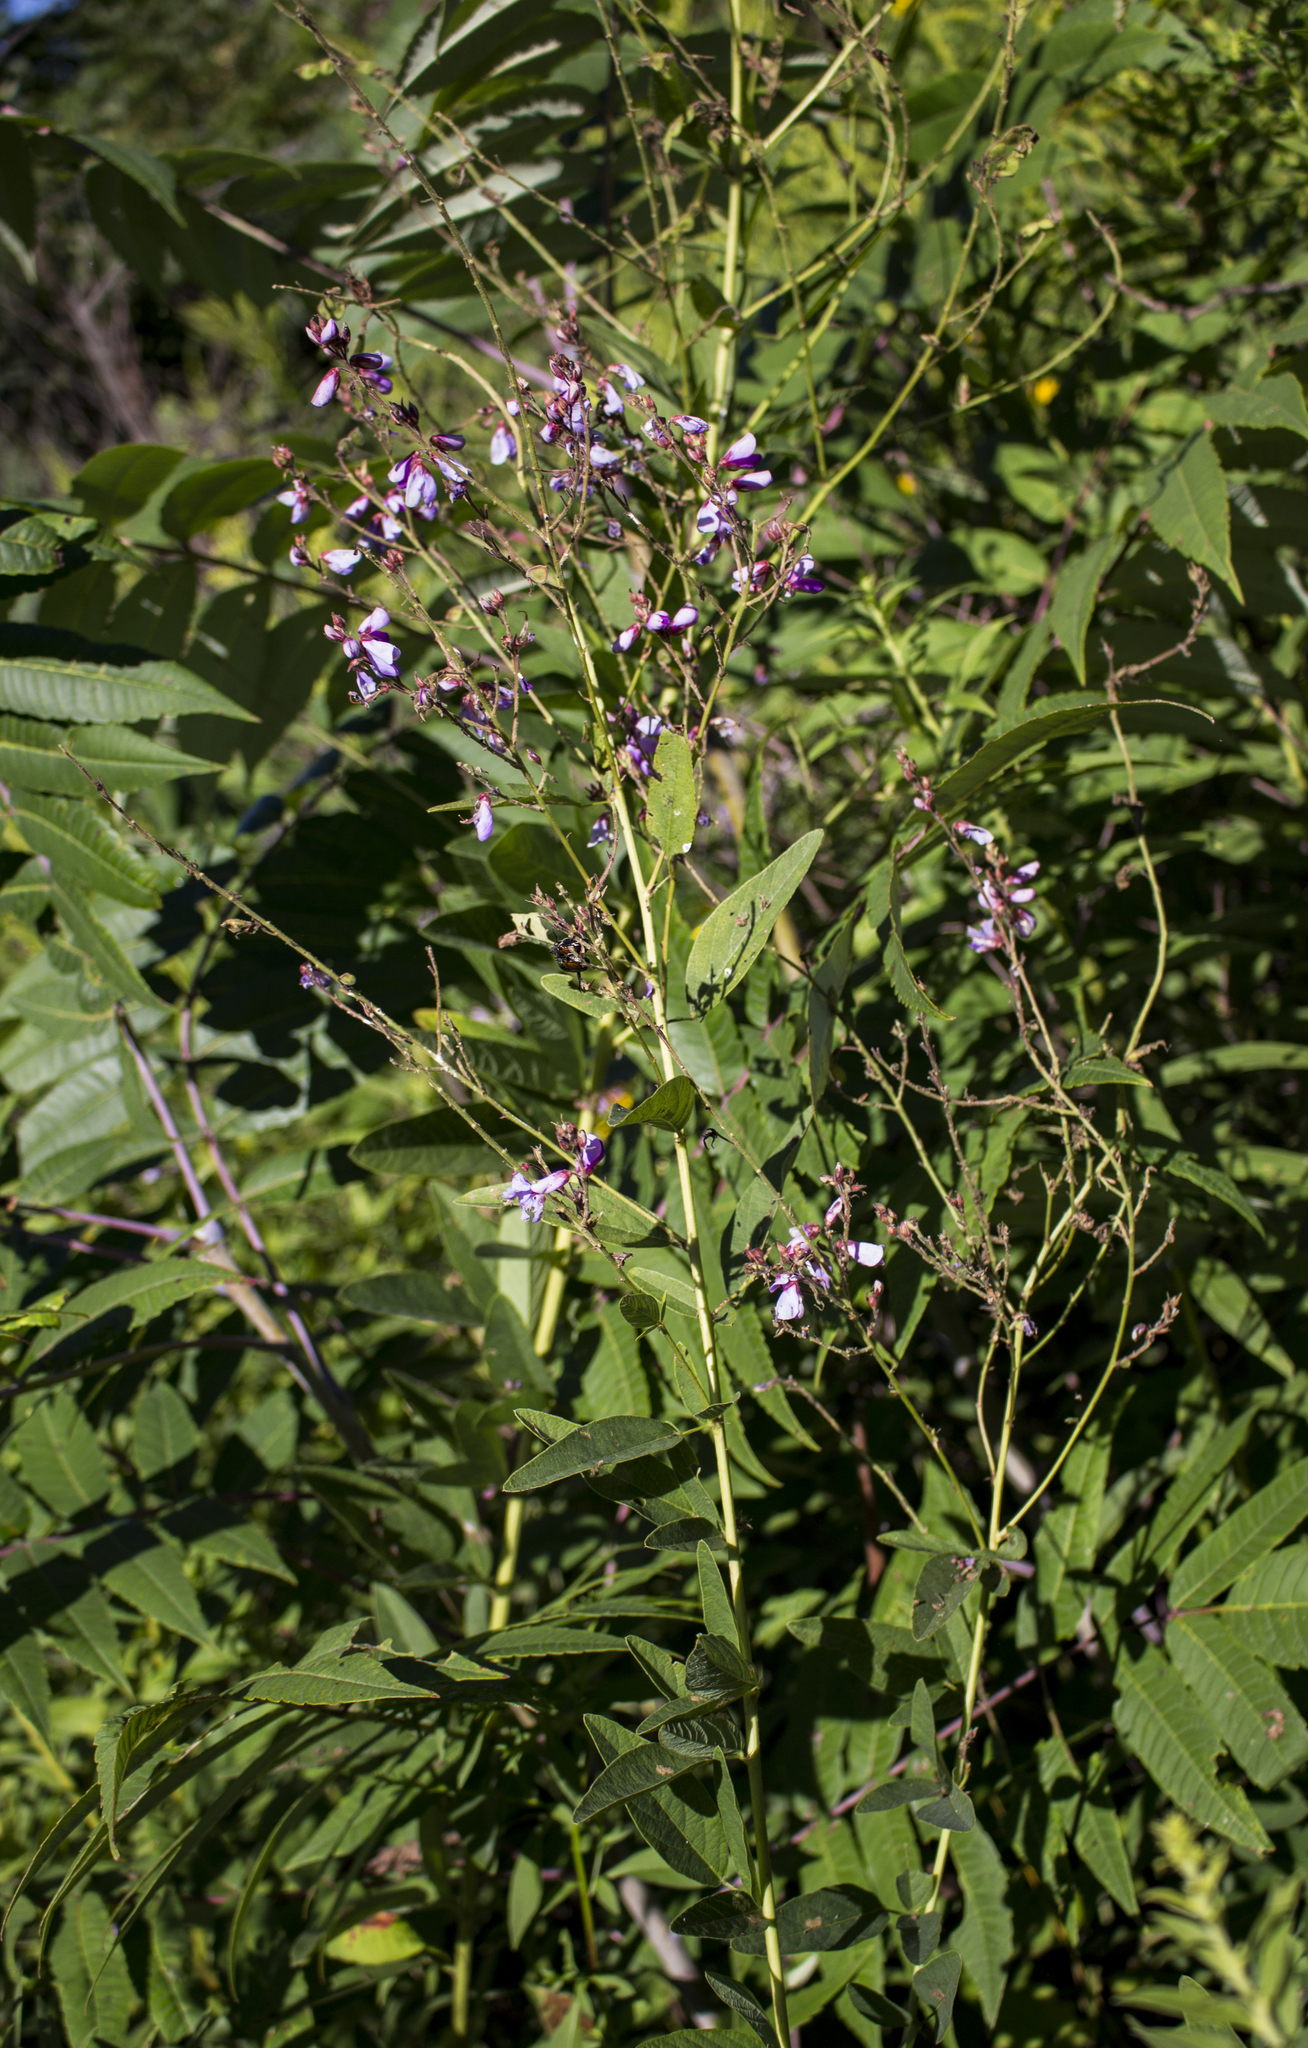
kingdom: Plantae
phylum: Tracheophyta
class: Magnoliopsida
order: Fabales
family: Fabaceae
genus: Desmodium
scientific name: Desmodium canadense
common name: Canada tick-trefoil
